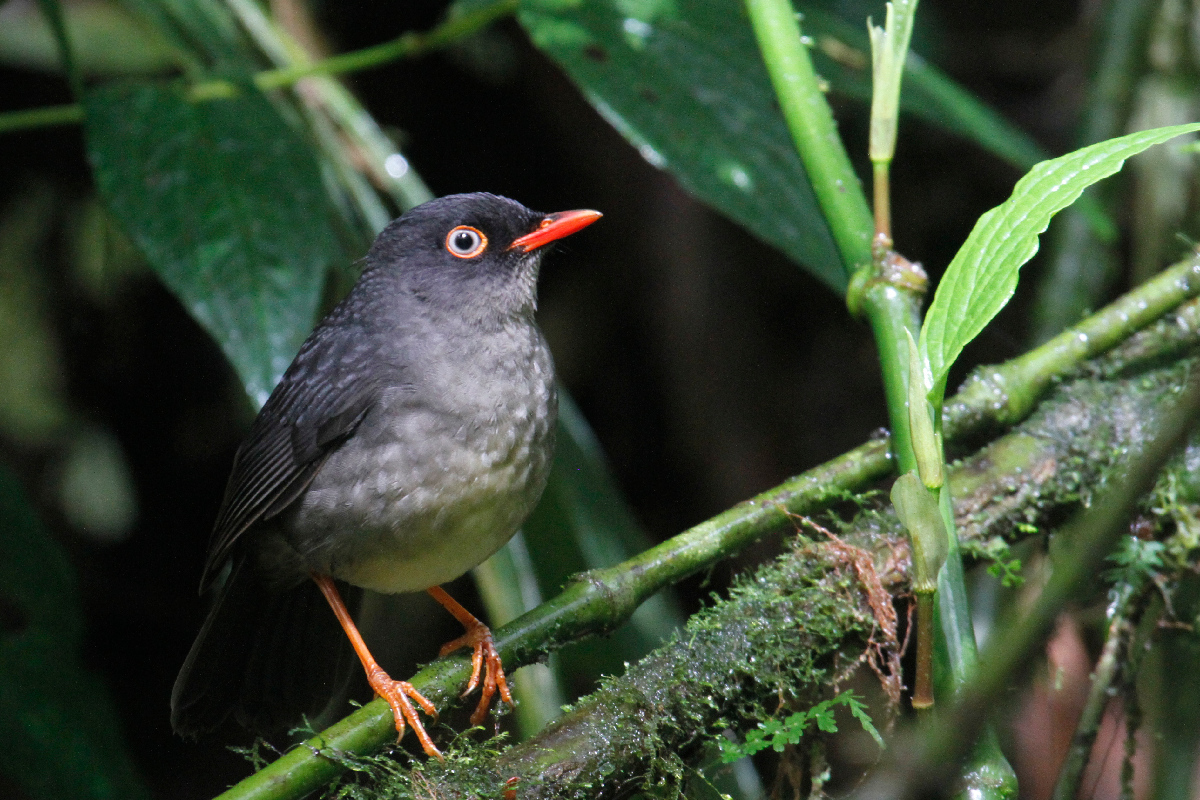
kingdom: Animalia
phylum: Chordata
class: Aves
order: Passeriformes
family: Turdidae
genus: Catharus
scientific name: Catharus fuscater
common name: Slaty-backed nightingale-thrush
